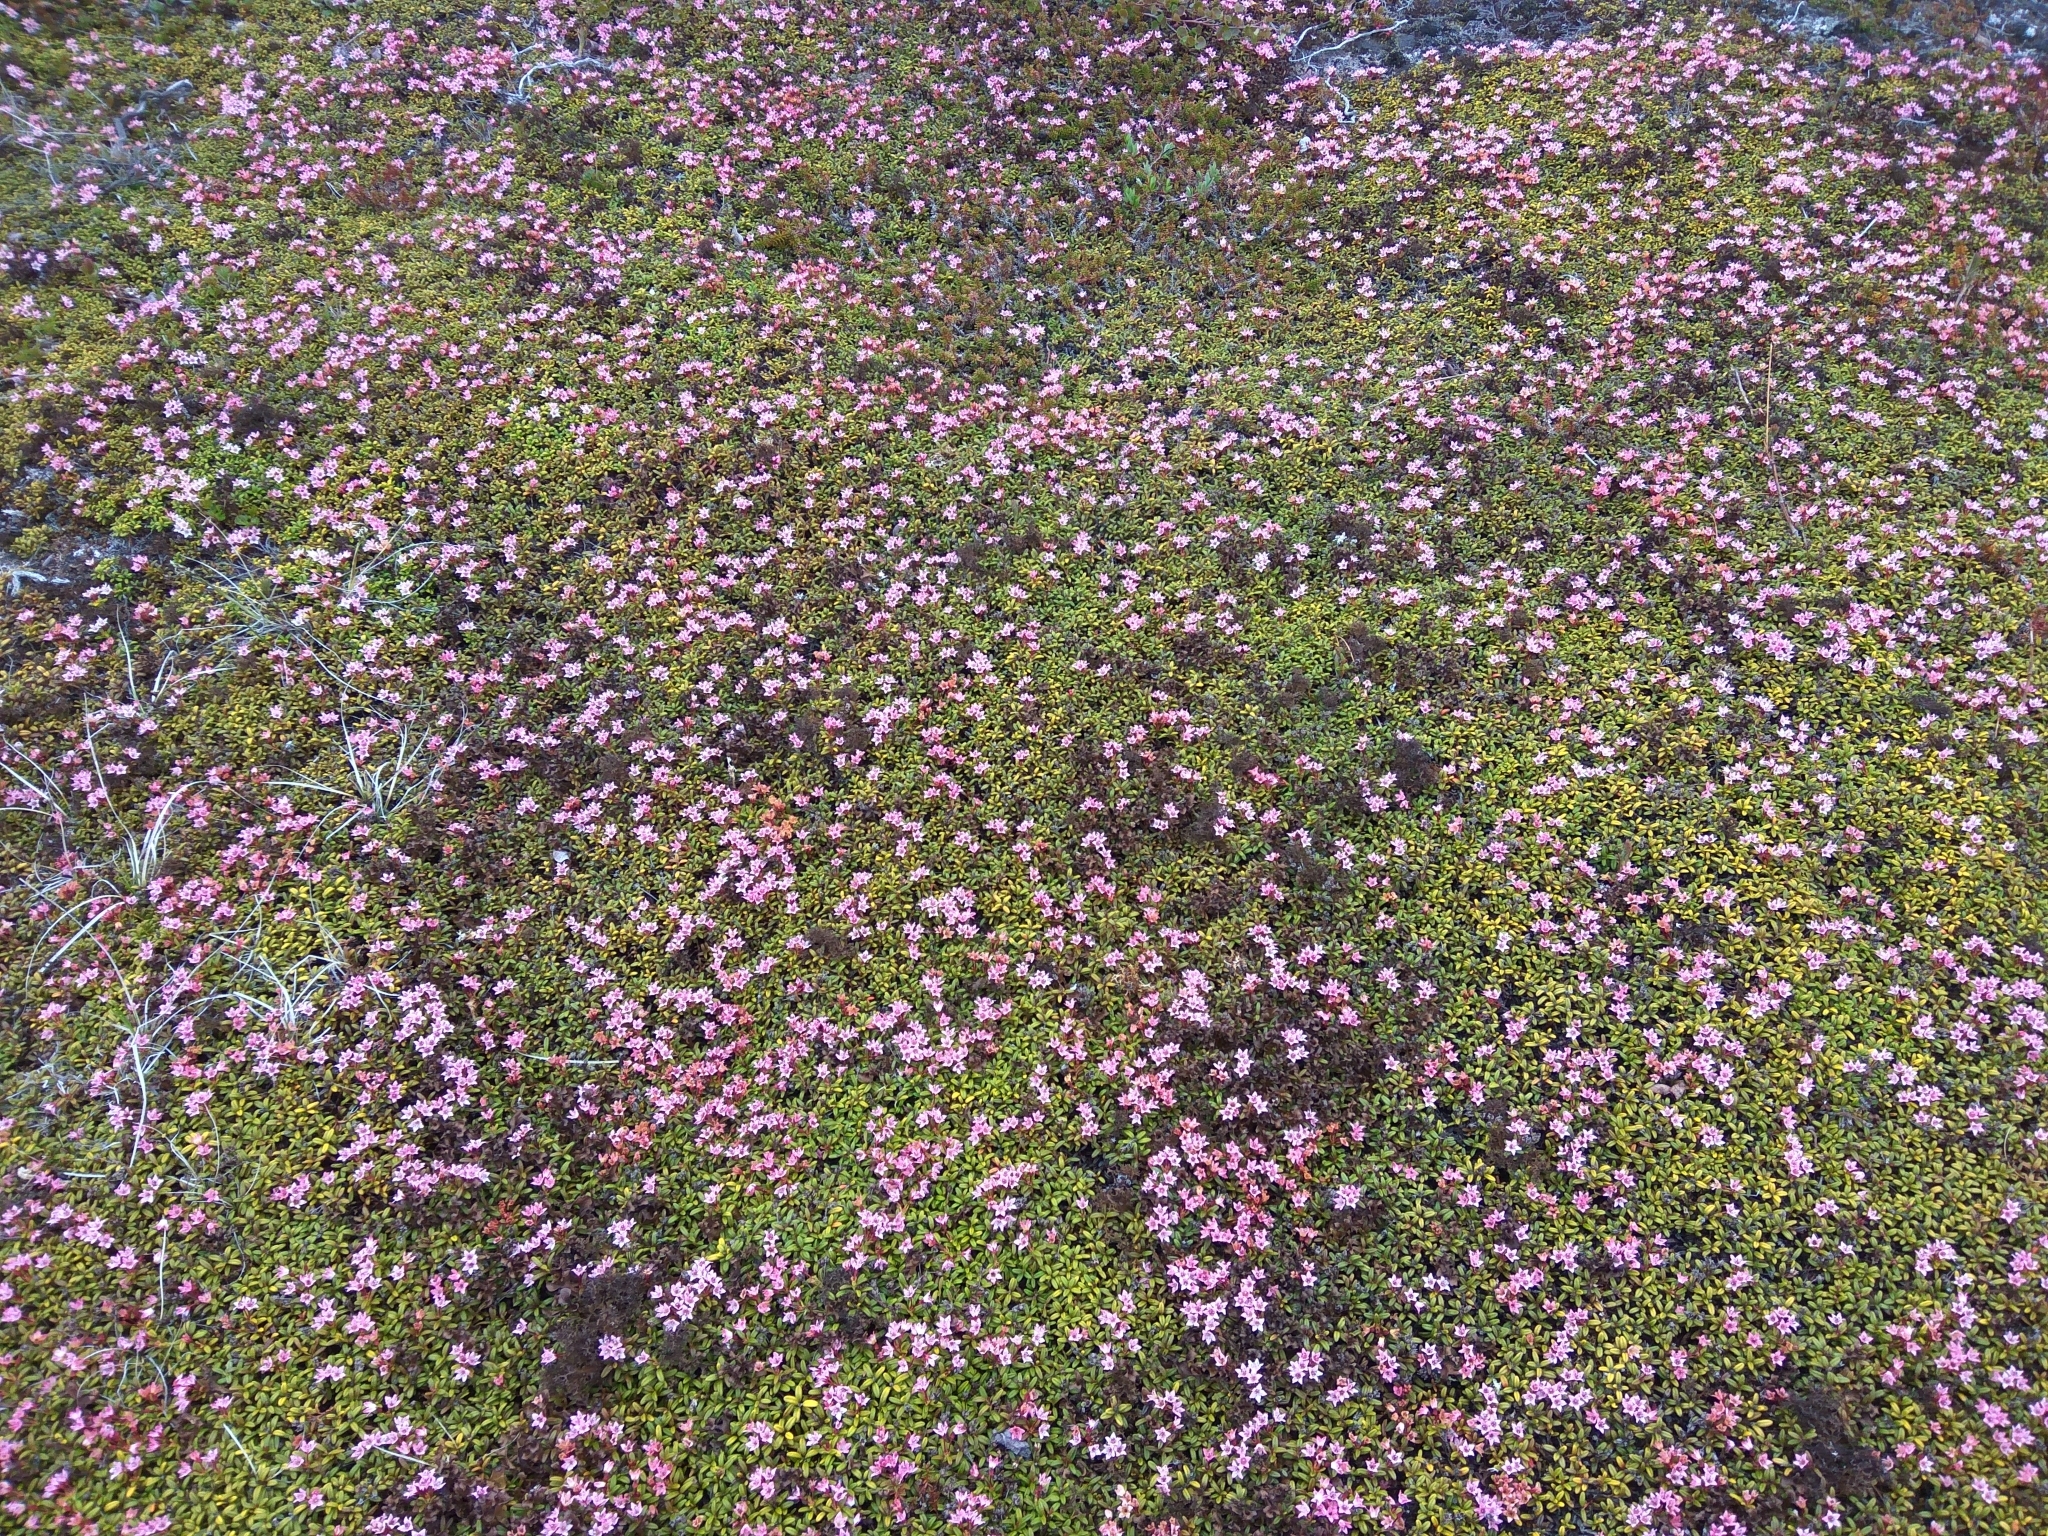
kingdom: Plantae
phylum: Tracheophyta
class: Magnoliopsida
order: Ericales
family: Ericaceae
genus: Kalmia
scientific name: Kalmia procumbens
